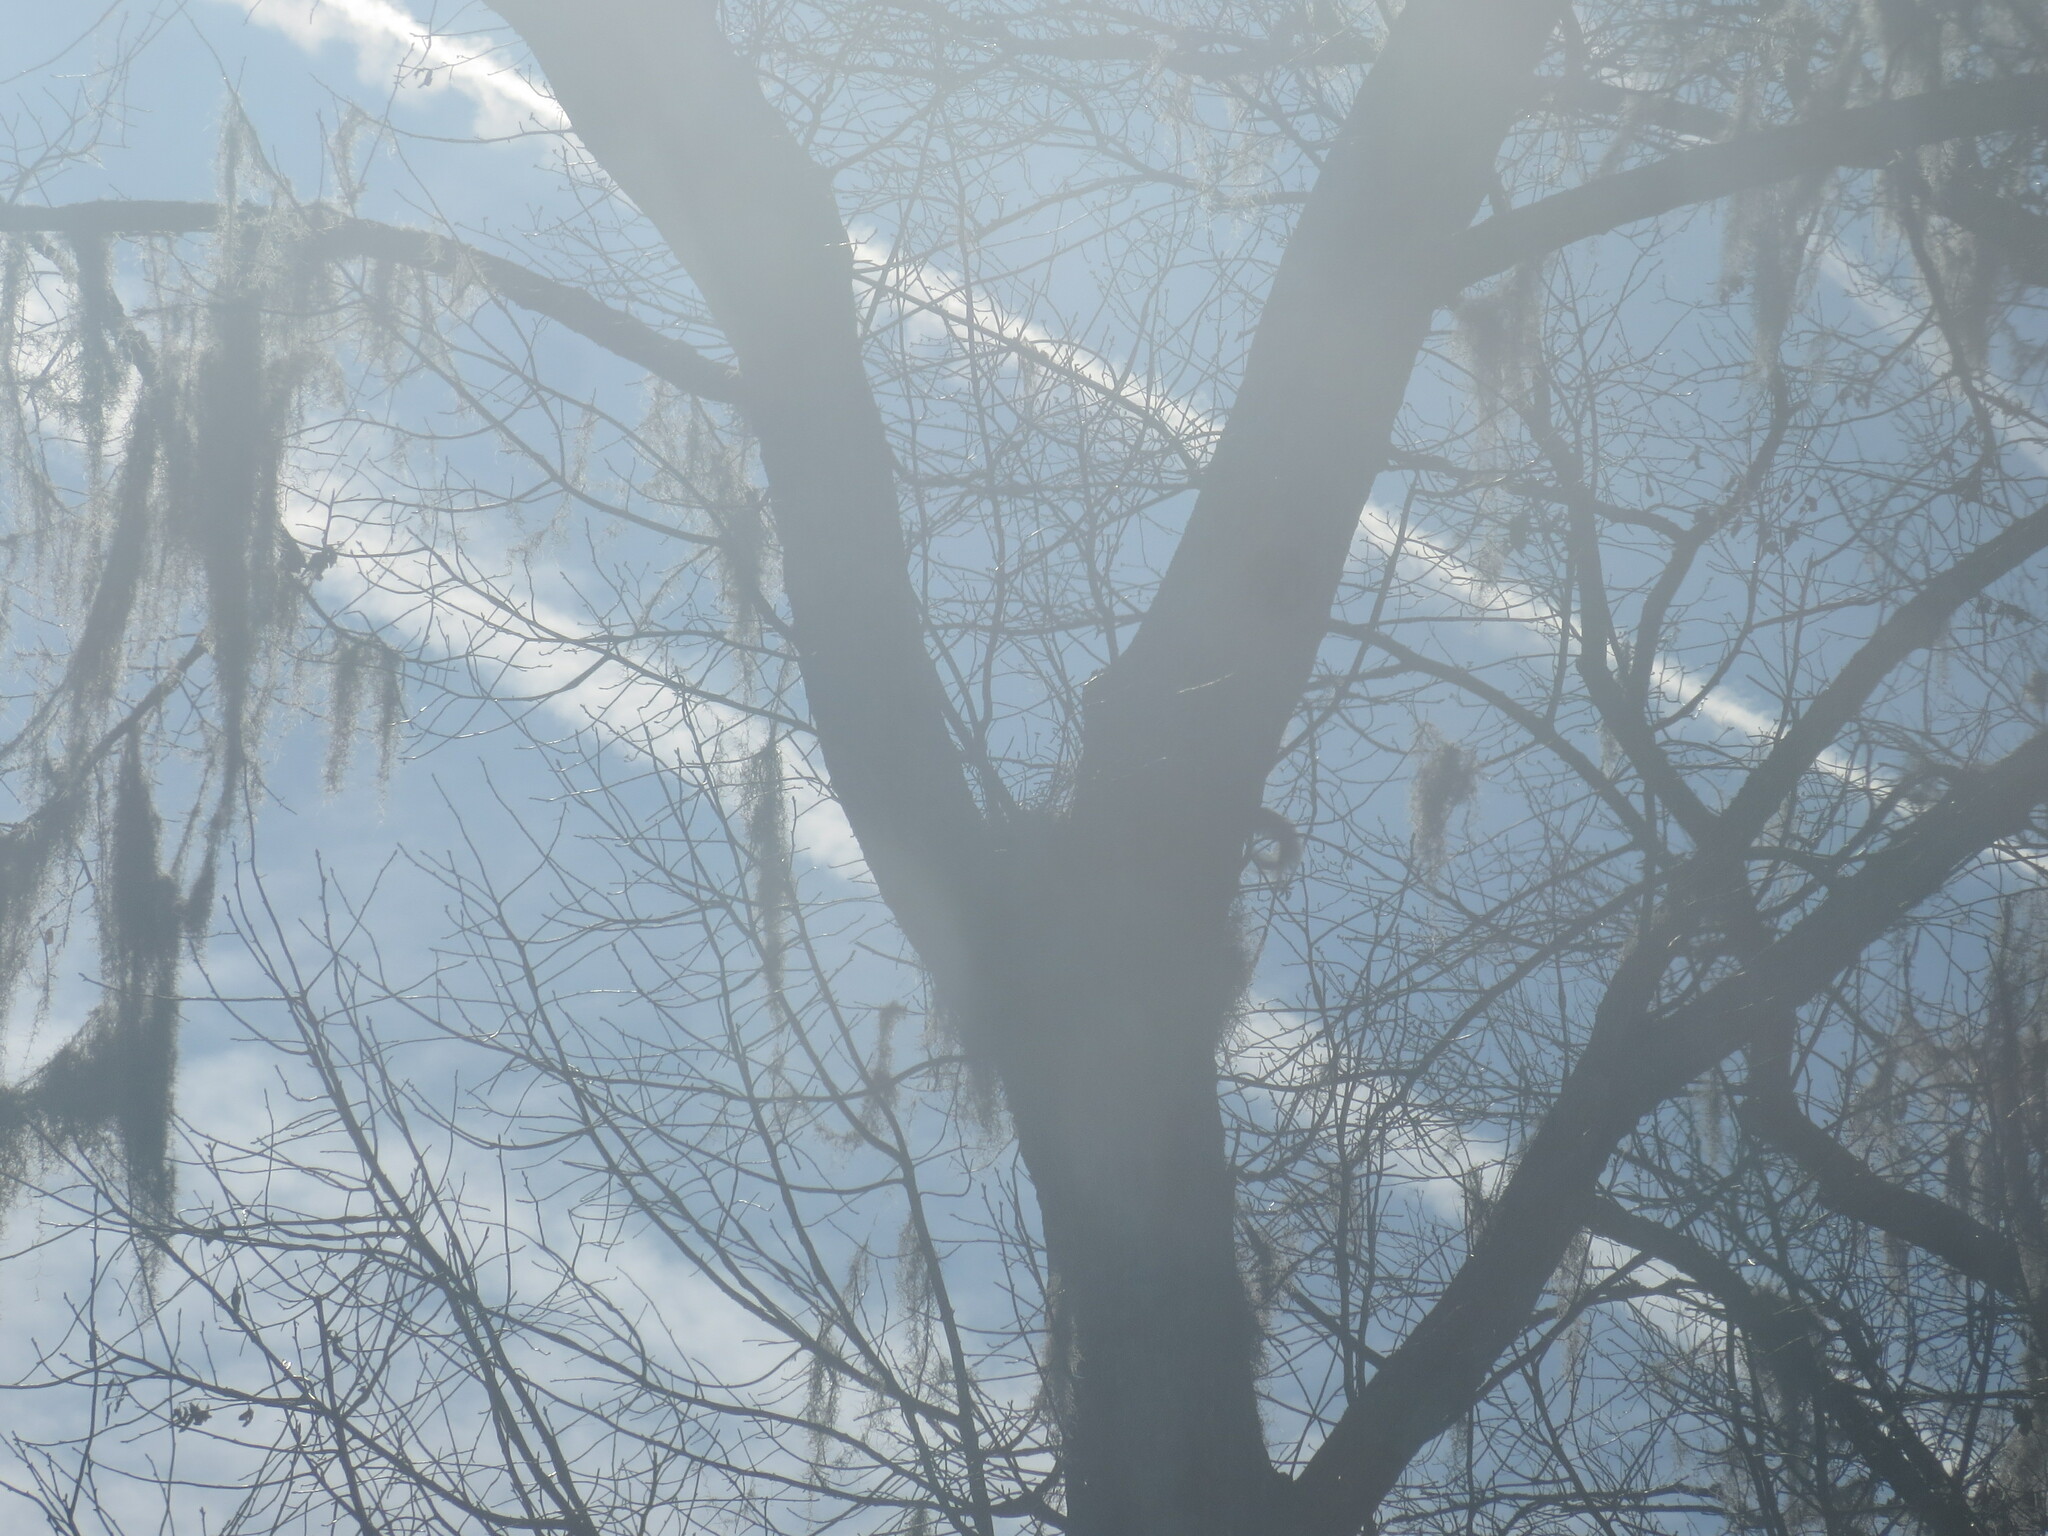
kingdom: Plantae
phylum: Tracheophyta
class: Liliopsida
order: Poales
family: Bromeliaceae
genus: Tillandsia
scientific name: Tillandsia usneoides
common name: Spanish moss
